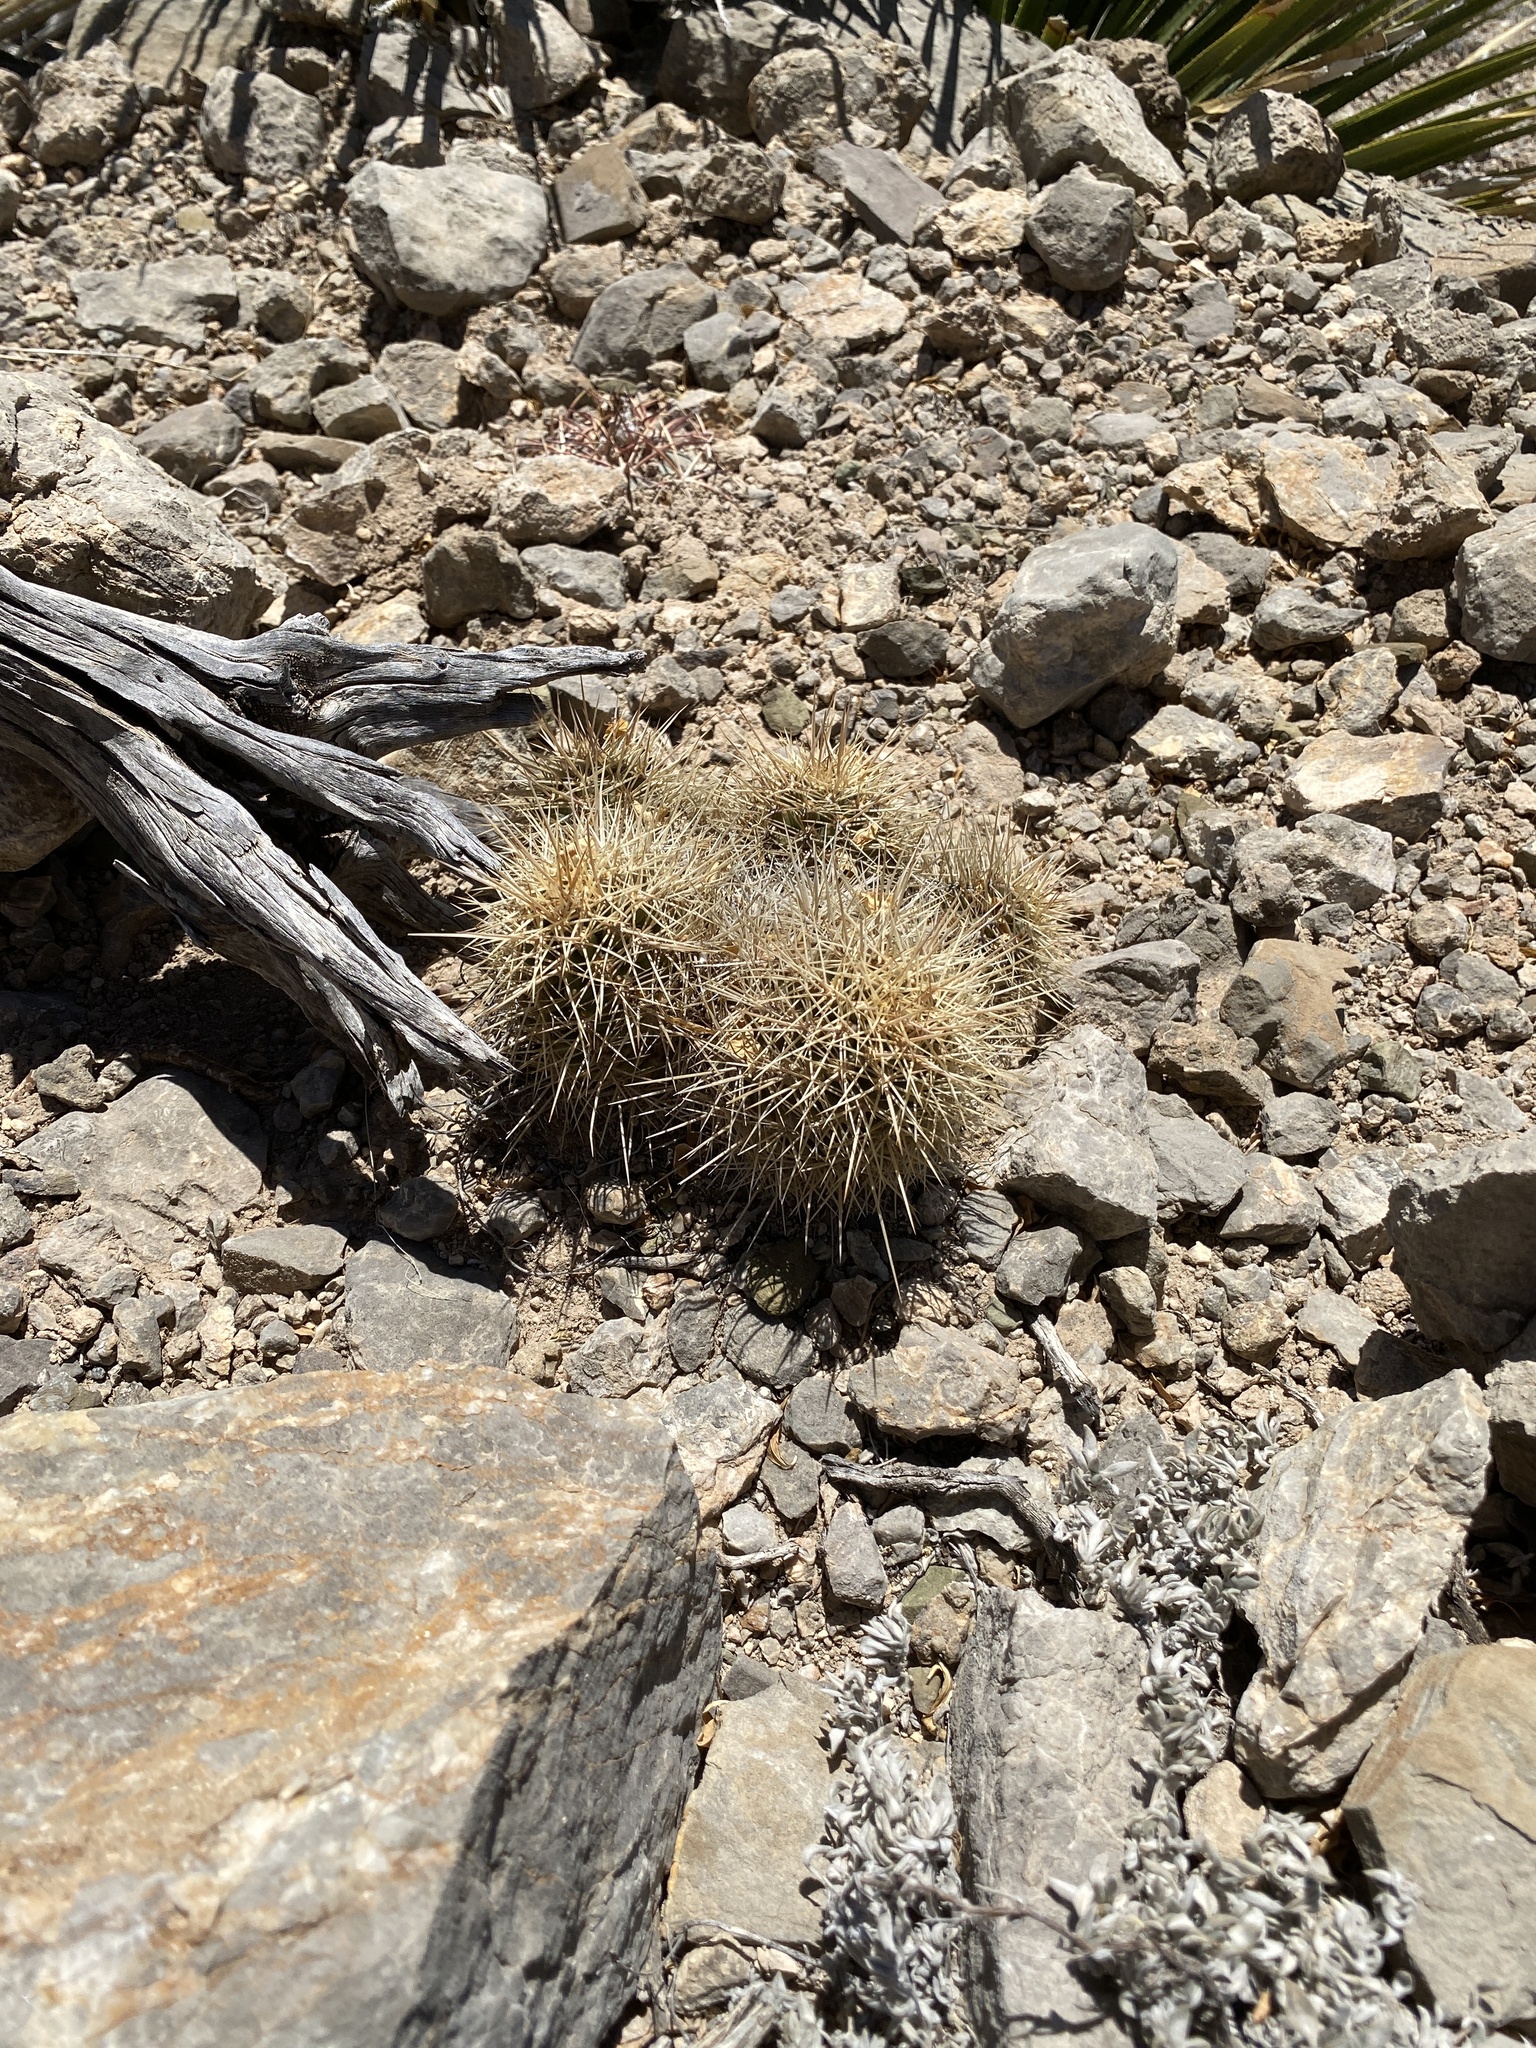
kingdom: Plantae
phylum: Tracheophyta
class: Magnoliopsida
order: Caryophyllales
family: Cactaceae
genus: Echinocereus
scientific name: Echinocereus coccineus
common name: Scarlet hedgehog cactus
